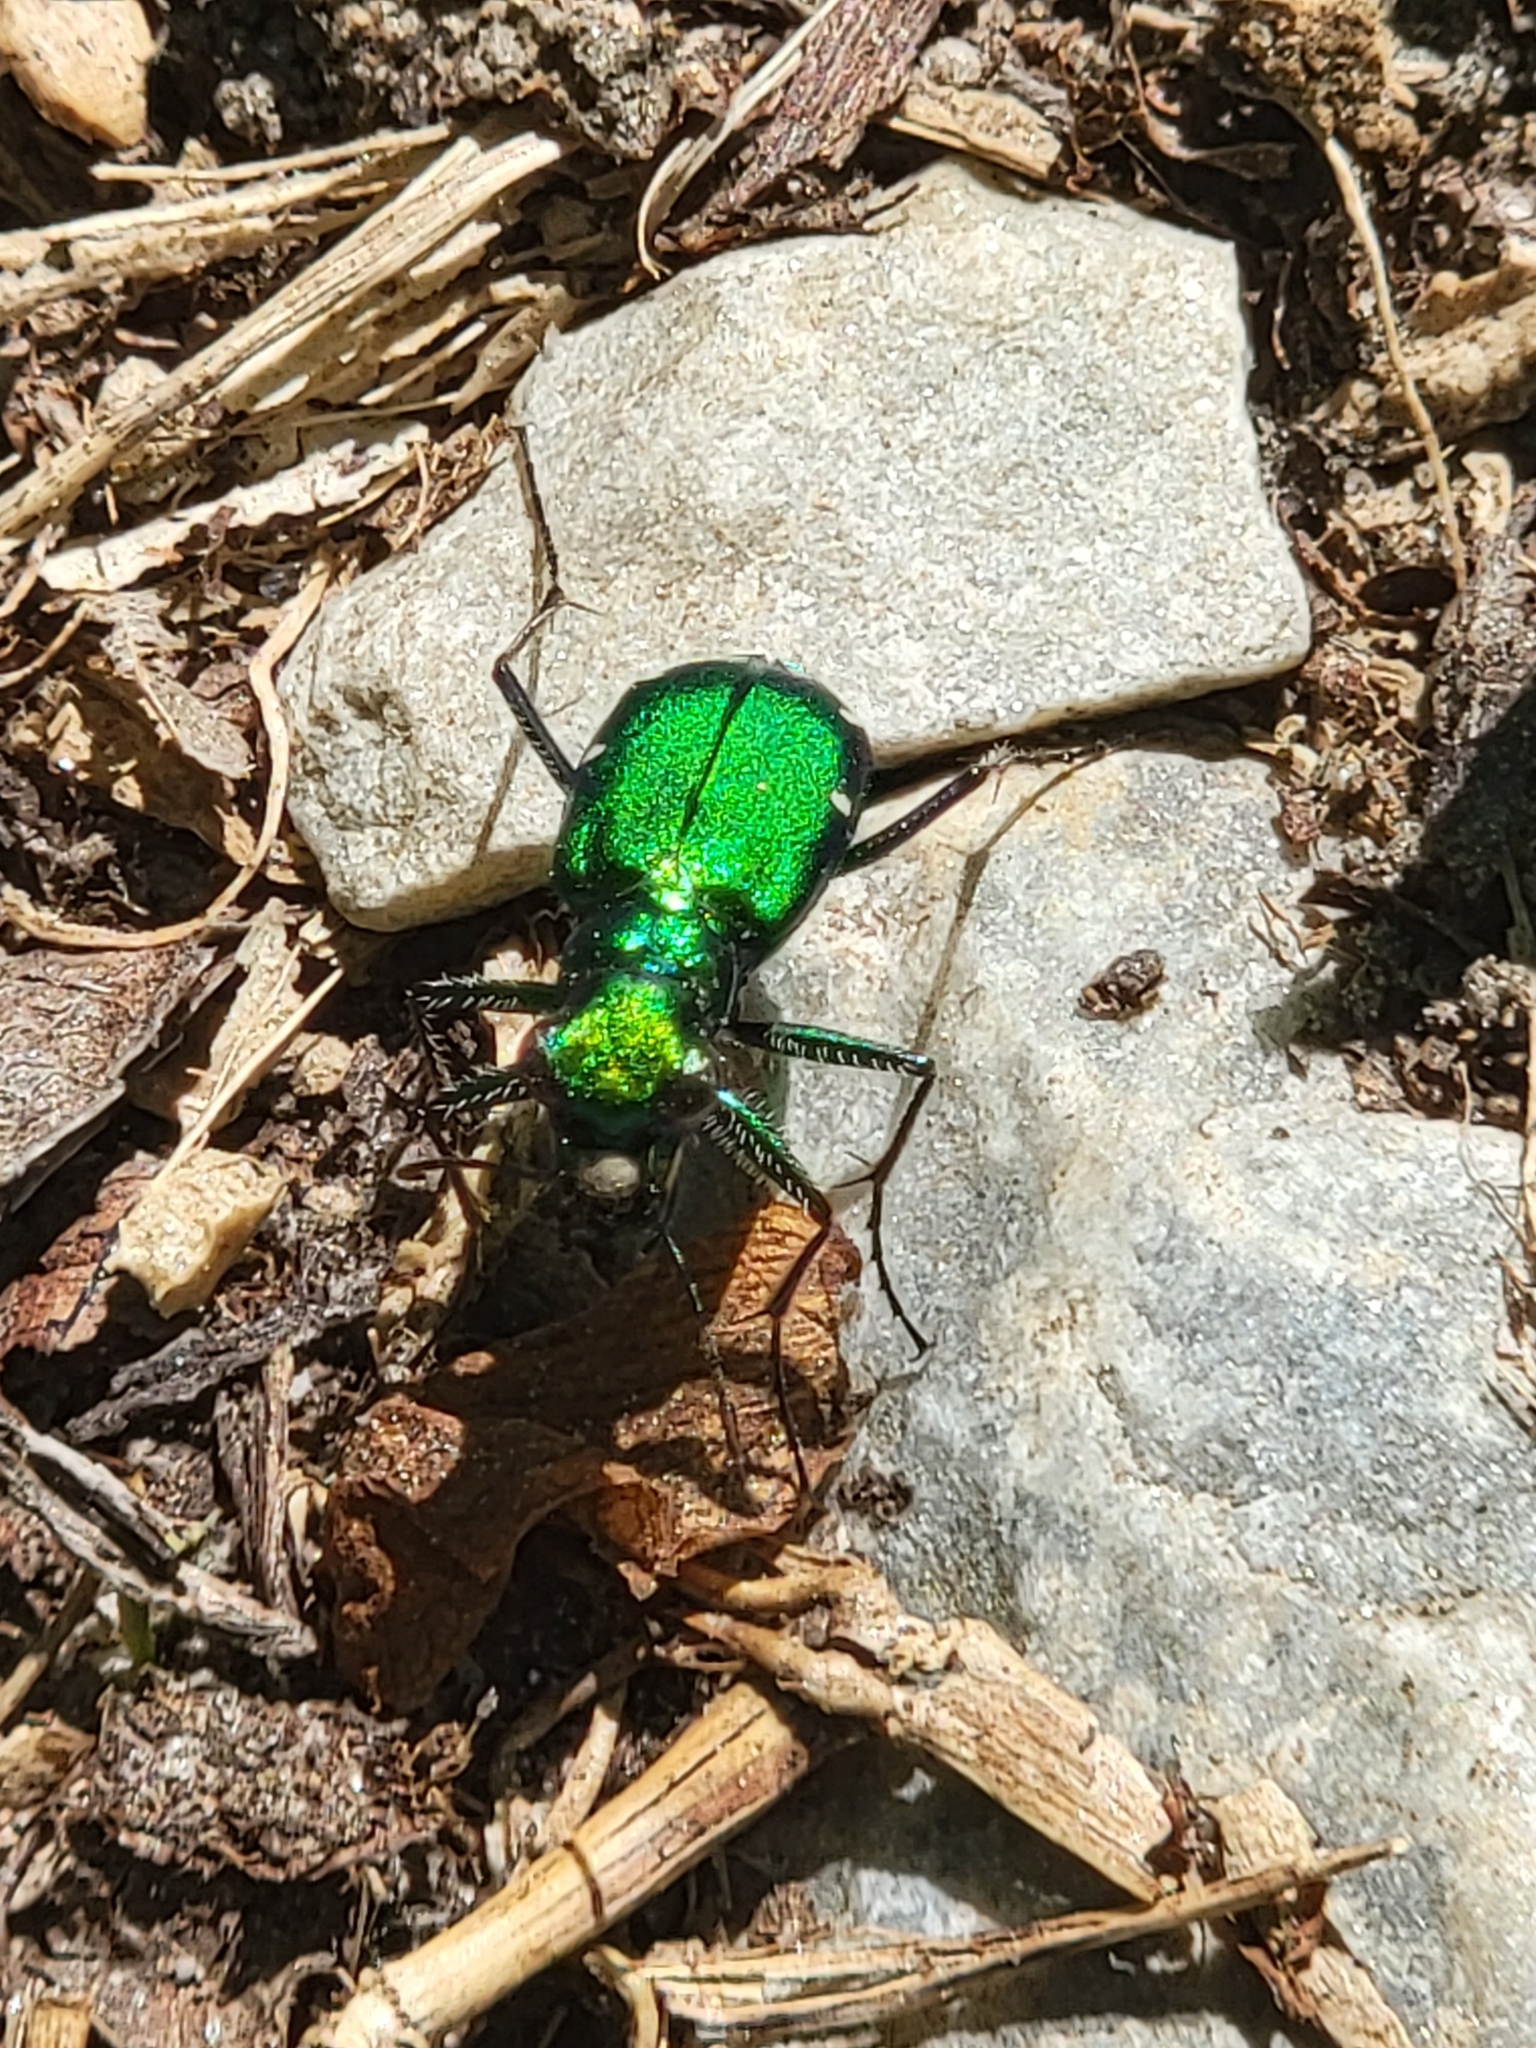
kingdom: Animalia
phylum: Arthropoda
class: Insecta
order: Coleoptera
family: Carabidae
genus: Cicindela
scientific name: Cicindela sexguttata
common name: Six-spotted tiger beetle
